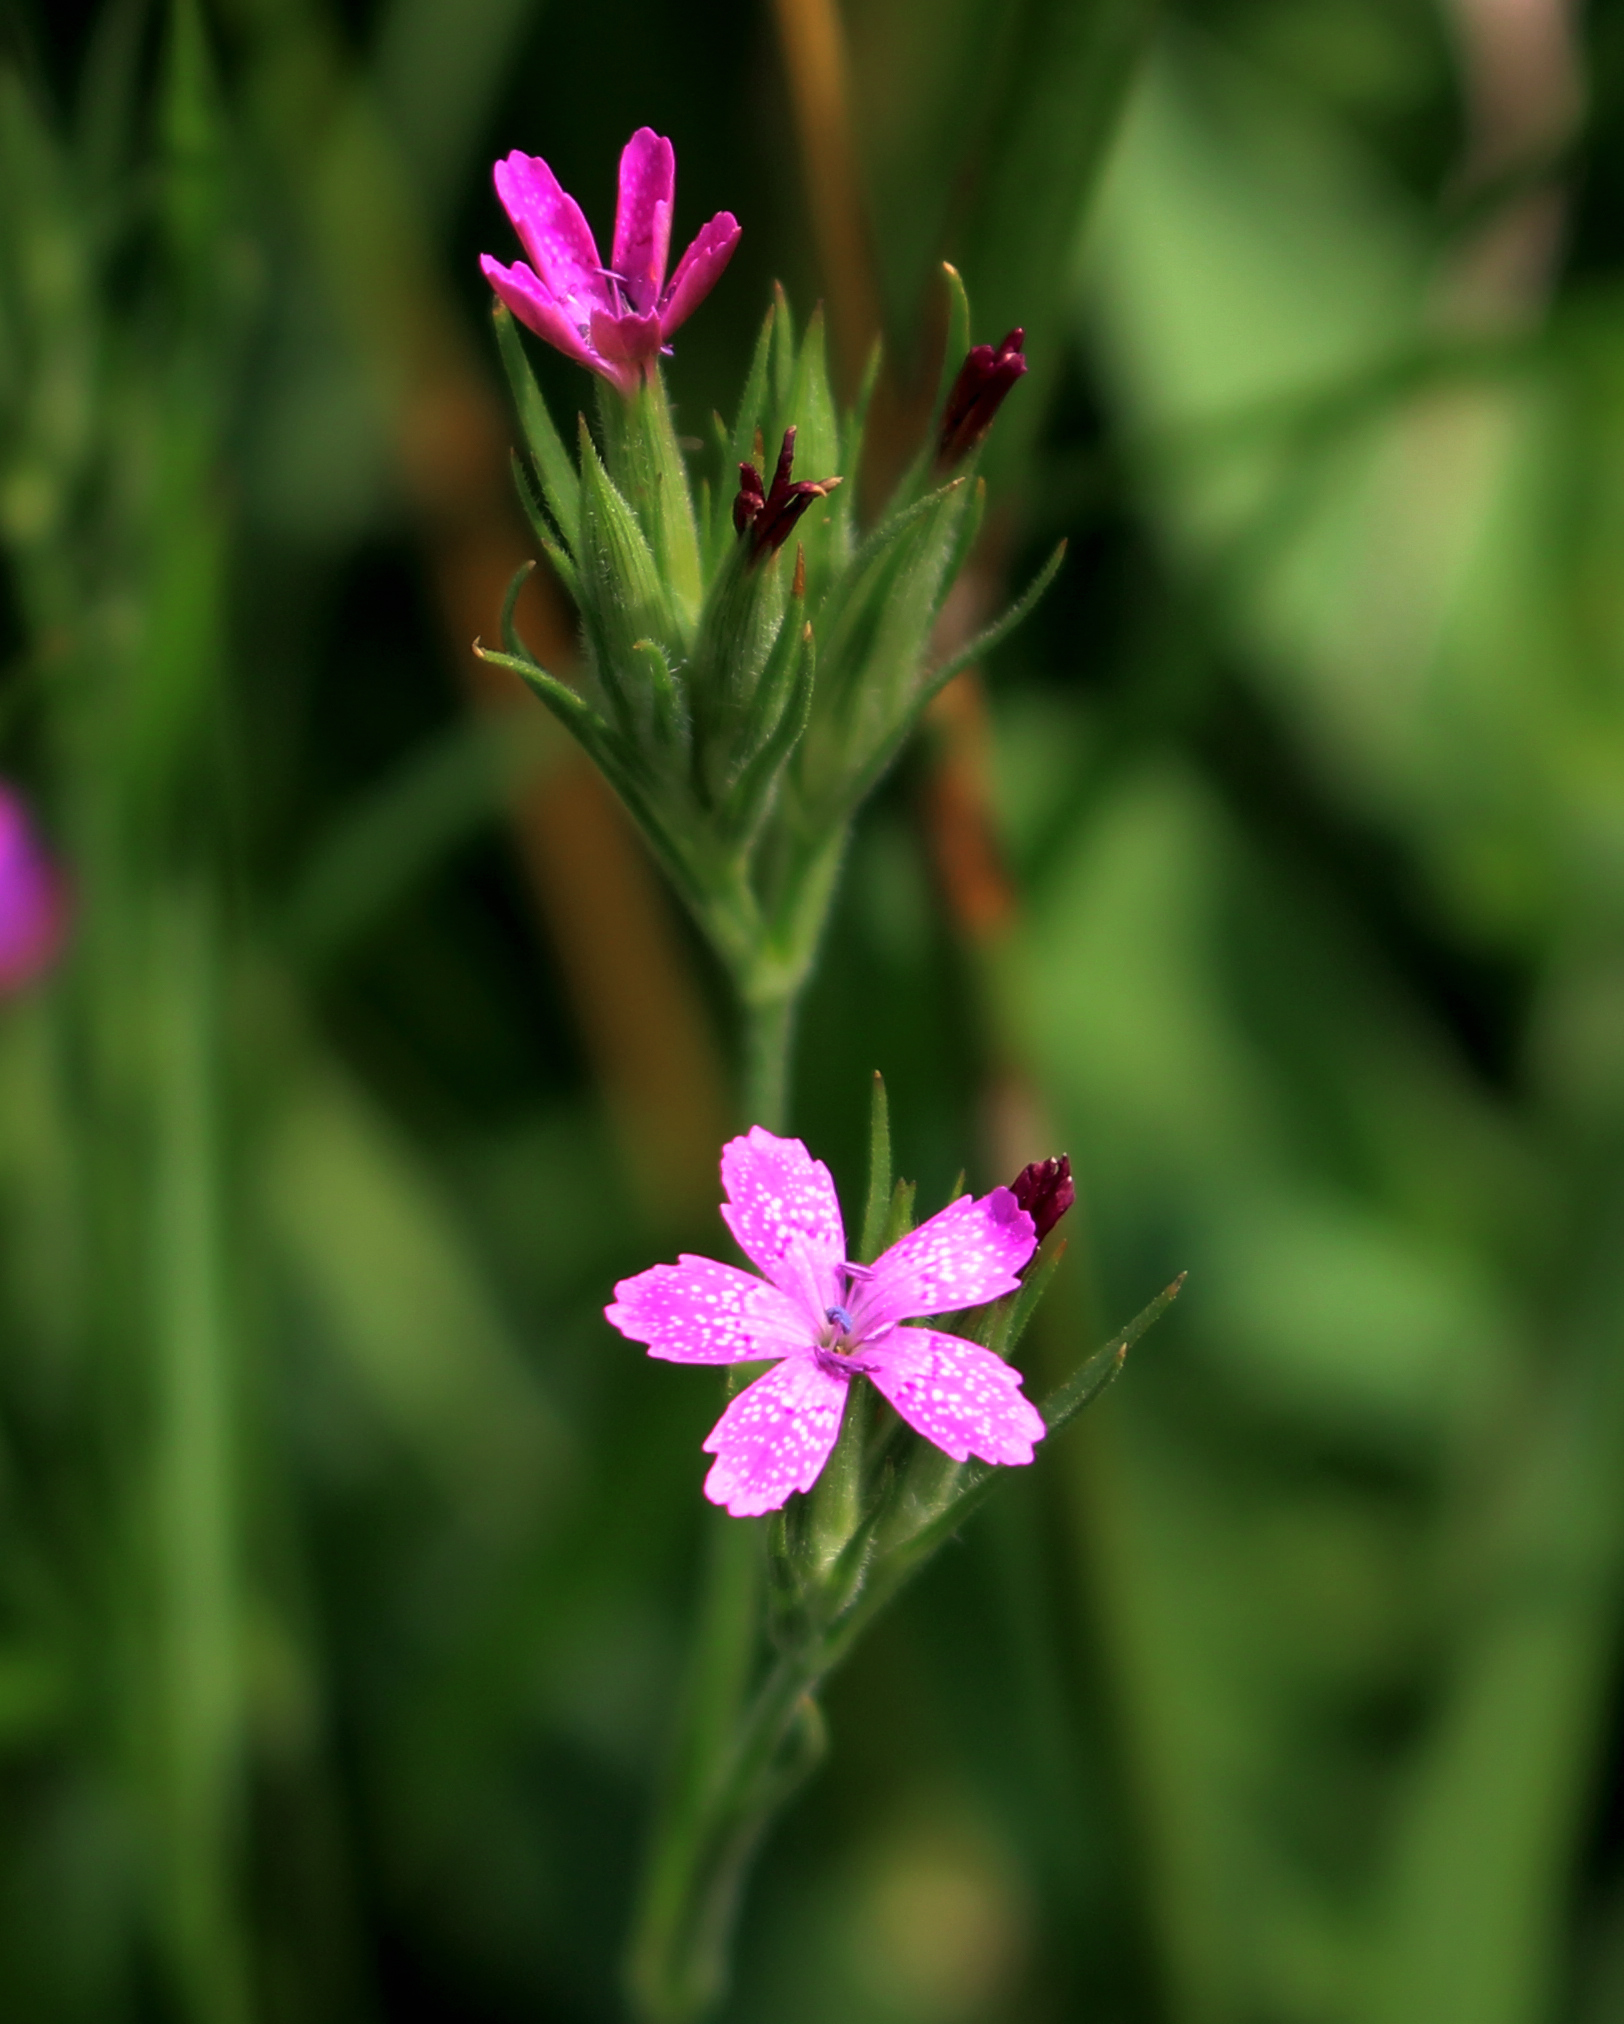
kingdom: Plantae
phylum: Tracheophyta
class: Magnoliopsida
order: Caryophyllales
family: Caryophyllaceae
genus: Dianthus
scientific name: Dianthus armeria
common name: Deptford pink
